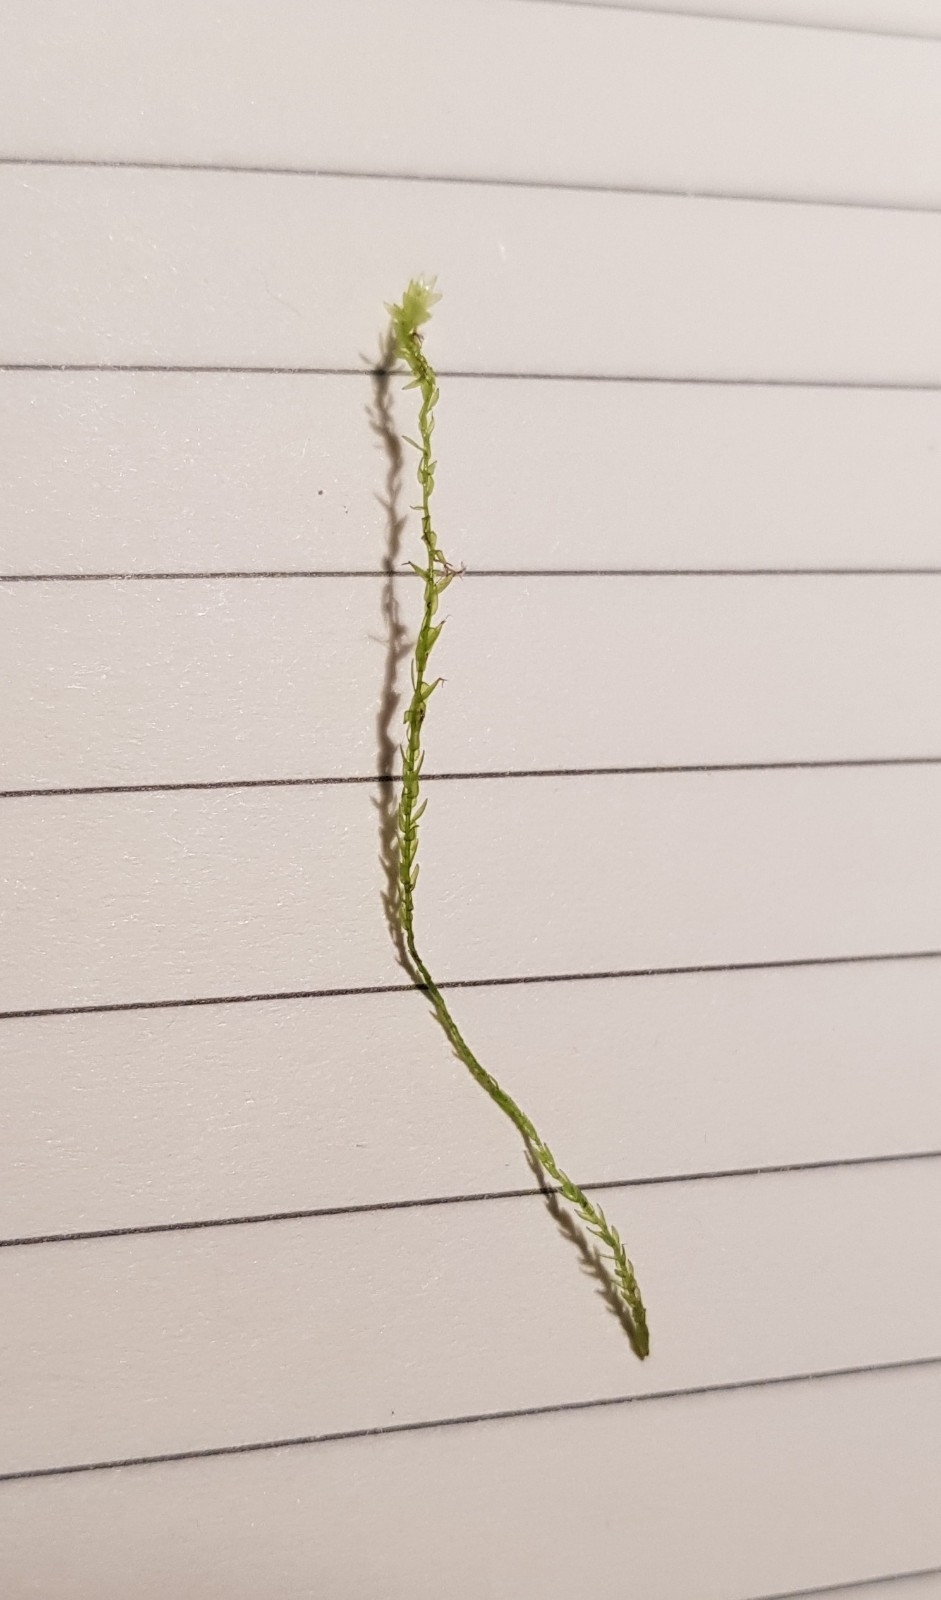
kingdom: Plantae
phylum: Bryophyta
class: Bryopsida
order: Hypnales
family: Calliergonaceae
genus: Straminergon
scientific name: Straminergon stramineum
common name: Straw moss
